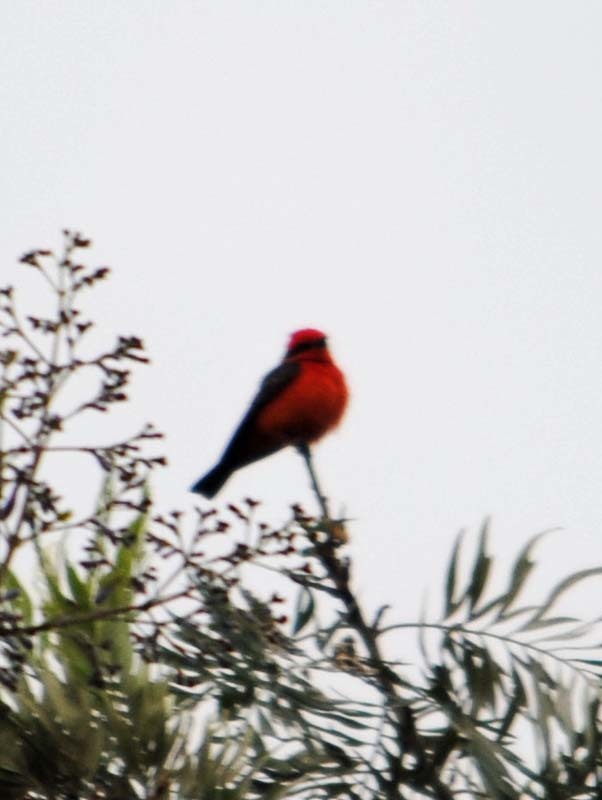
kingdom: Animalia
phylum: Chordata
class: Aves
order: Passeriformes
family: Tyrannidae
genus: Pyrocephalus
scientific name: Pyrocephalus rubinus
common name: Vermilion flycatcher
